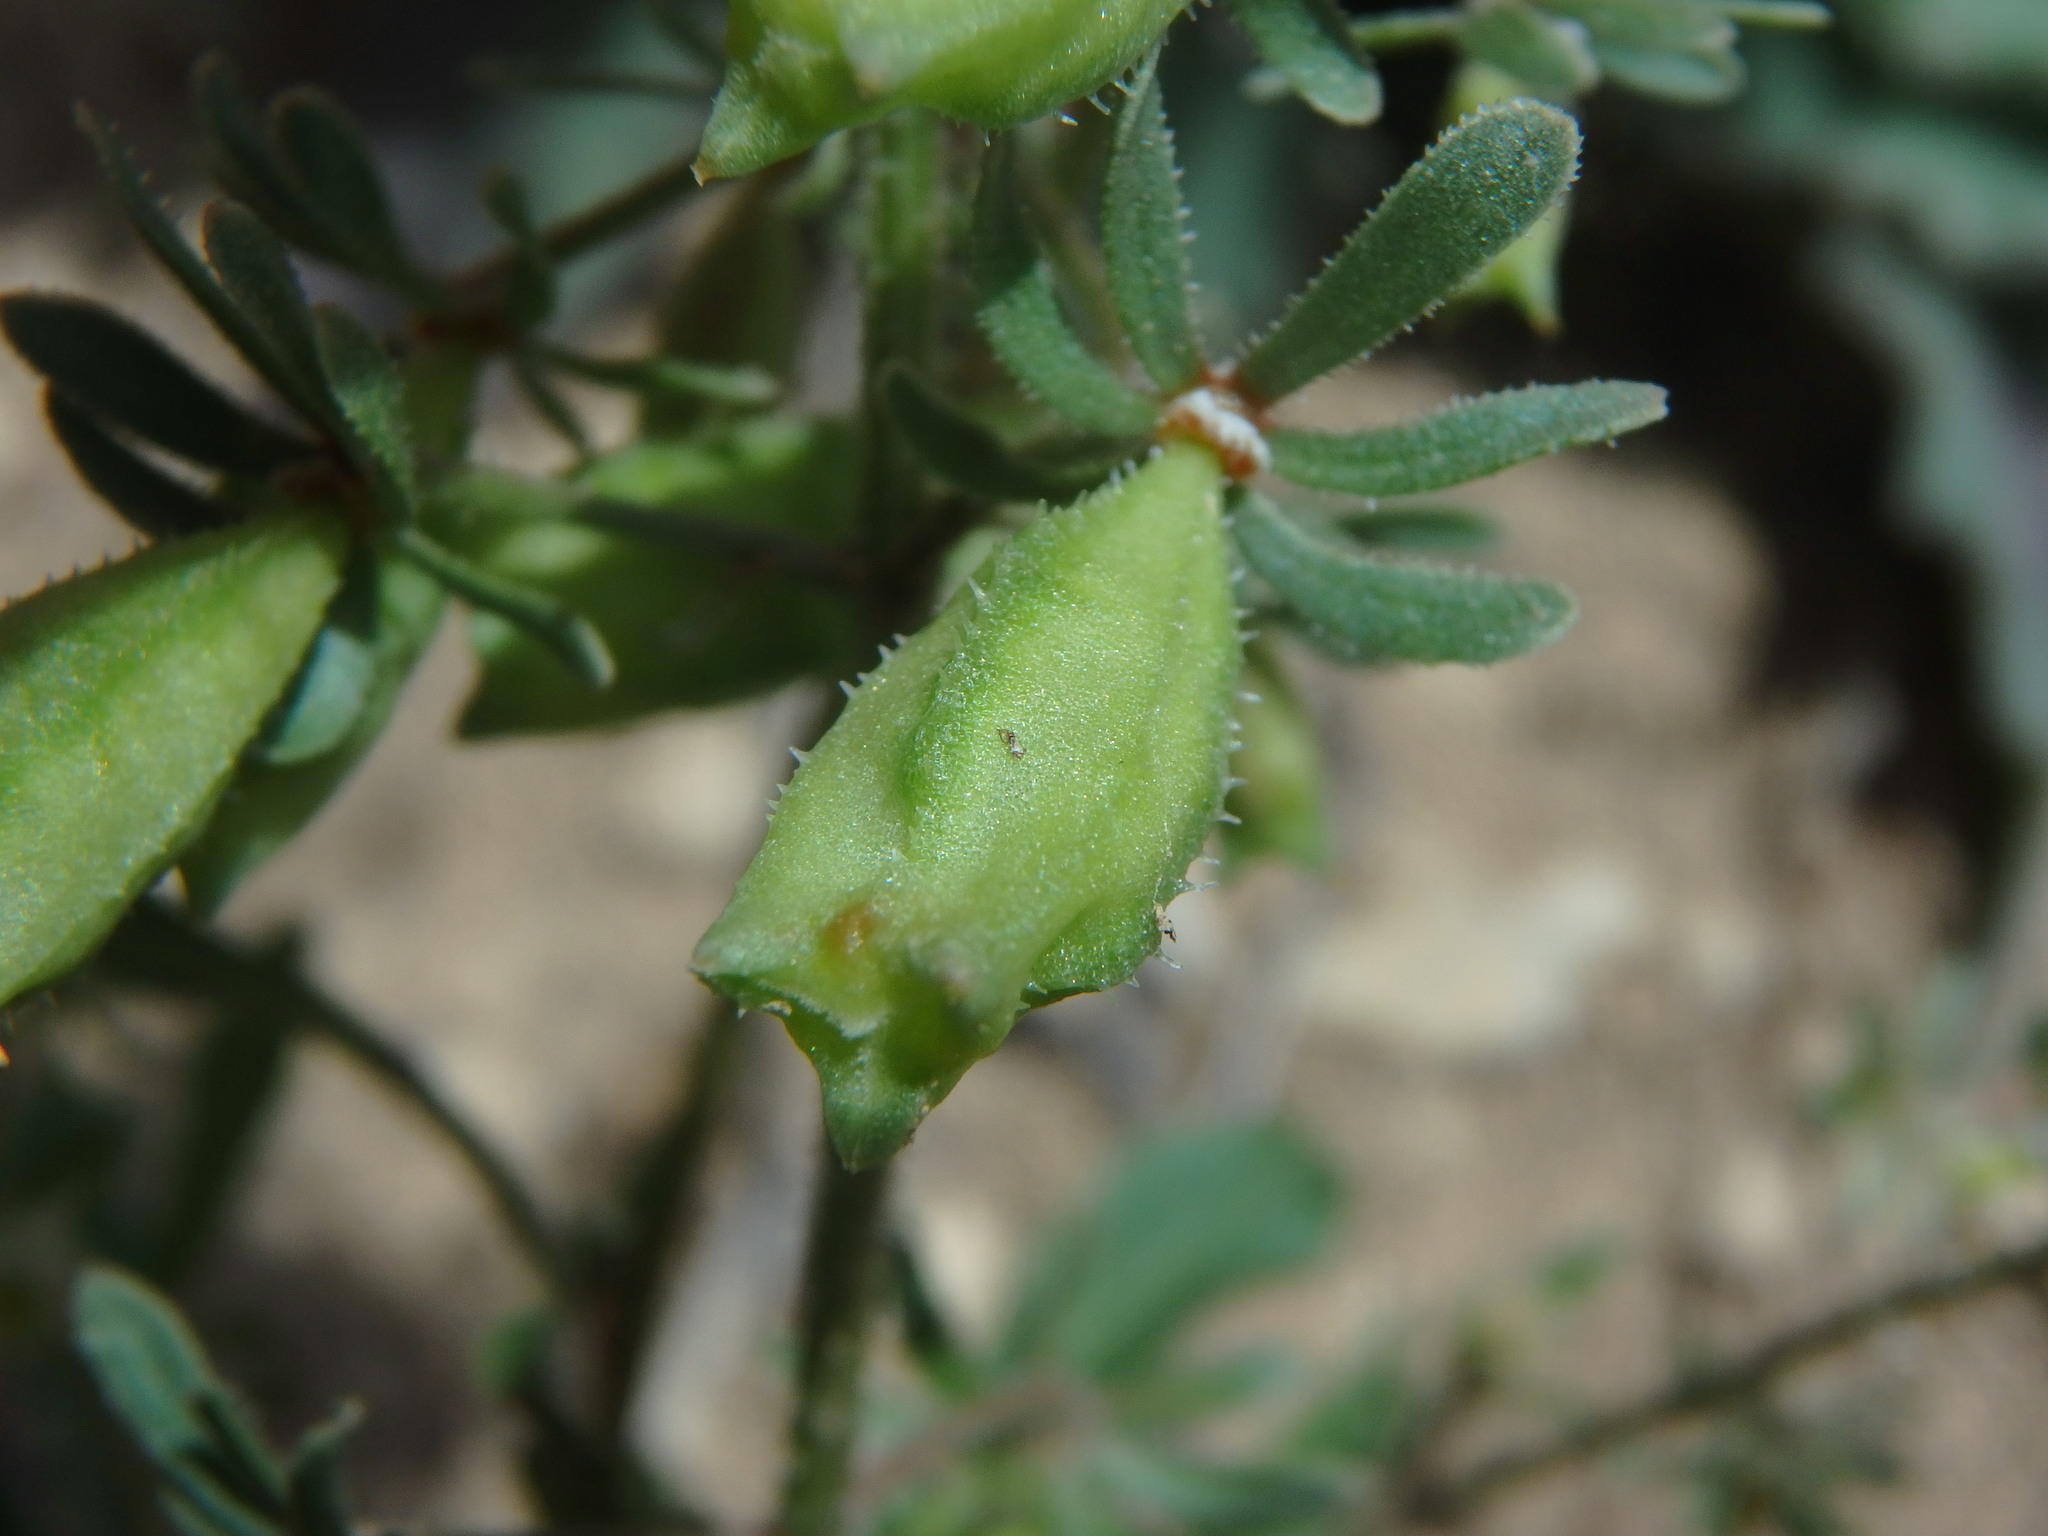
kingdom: Plantae
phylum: Tracheophyta
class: Magnoliopsida
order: Brassicales
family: Resedaceae
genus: Reseda
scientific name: Reseda phyteuma
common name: Corn mignonette
